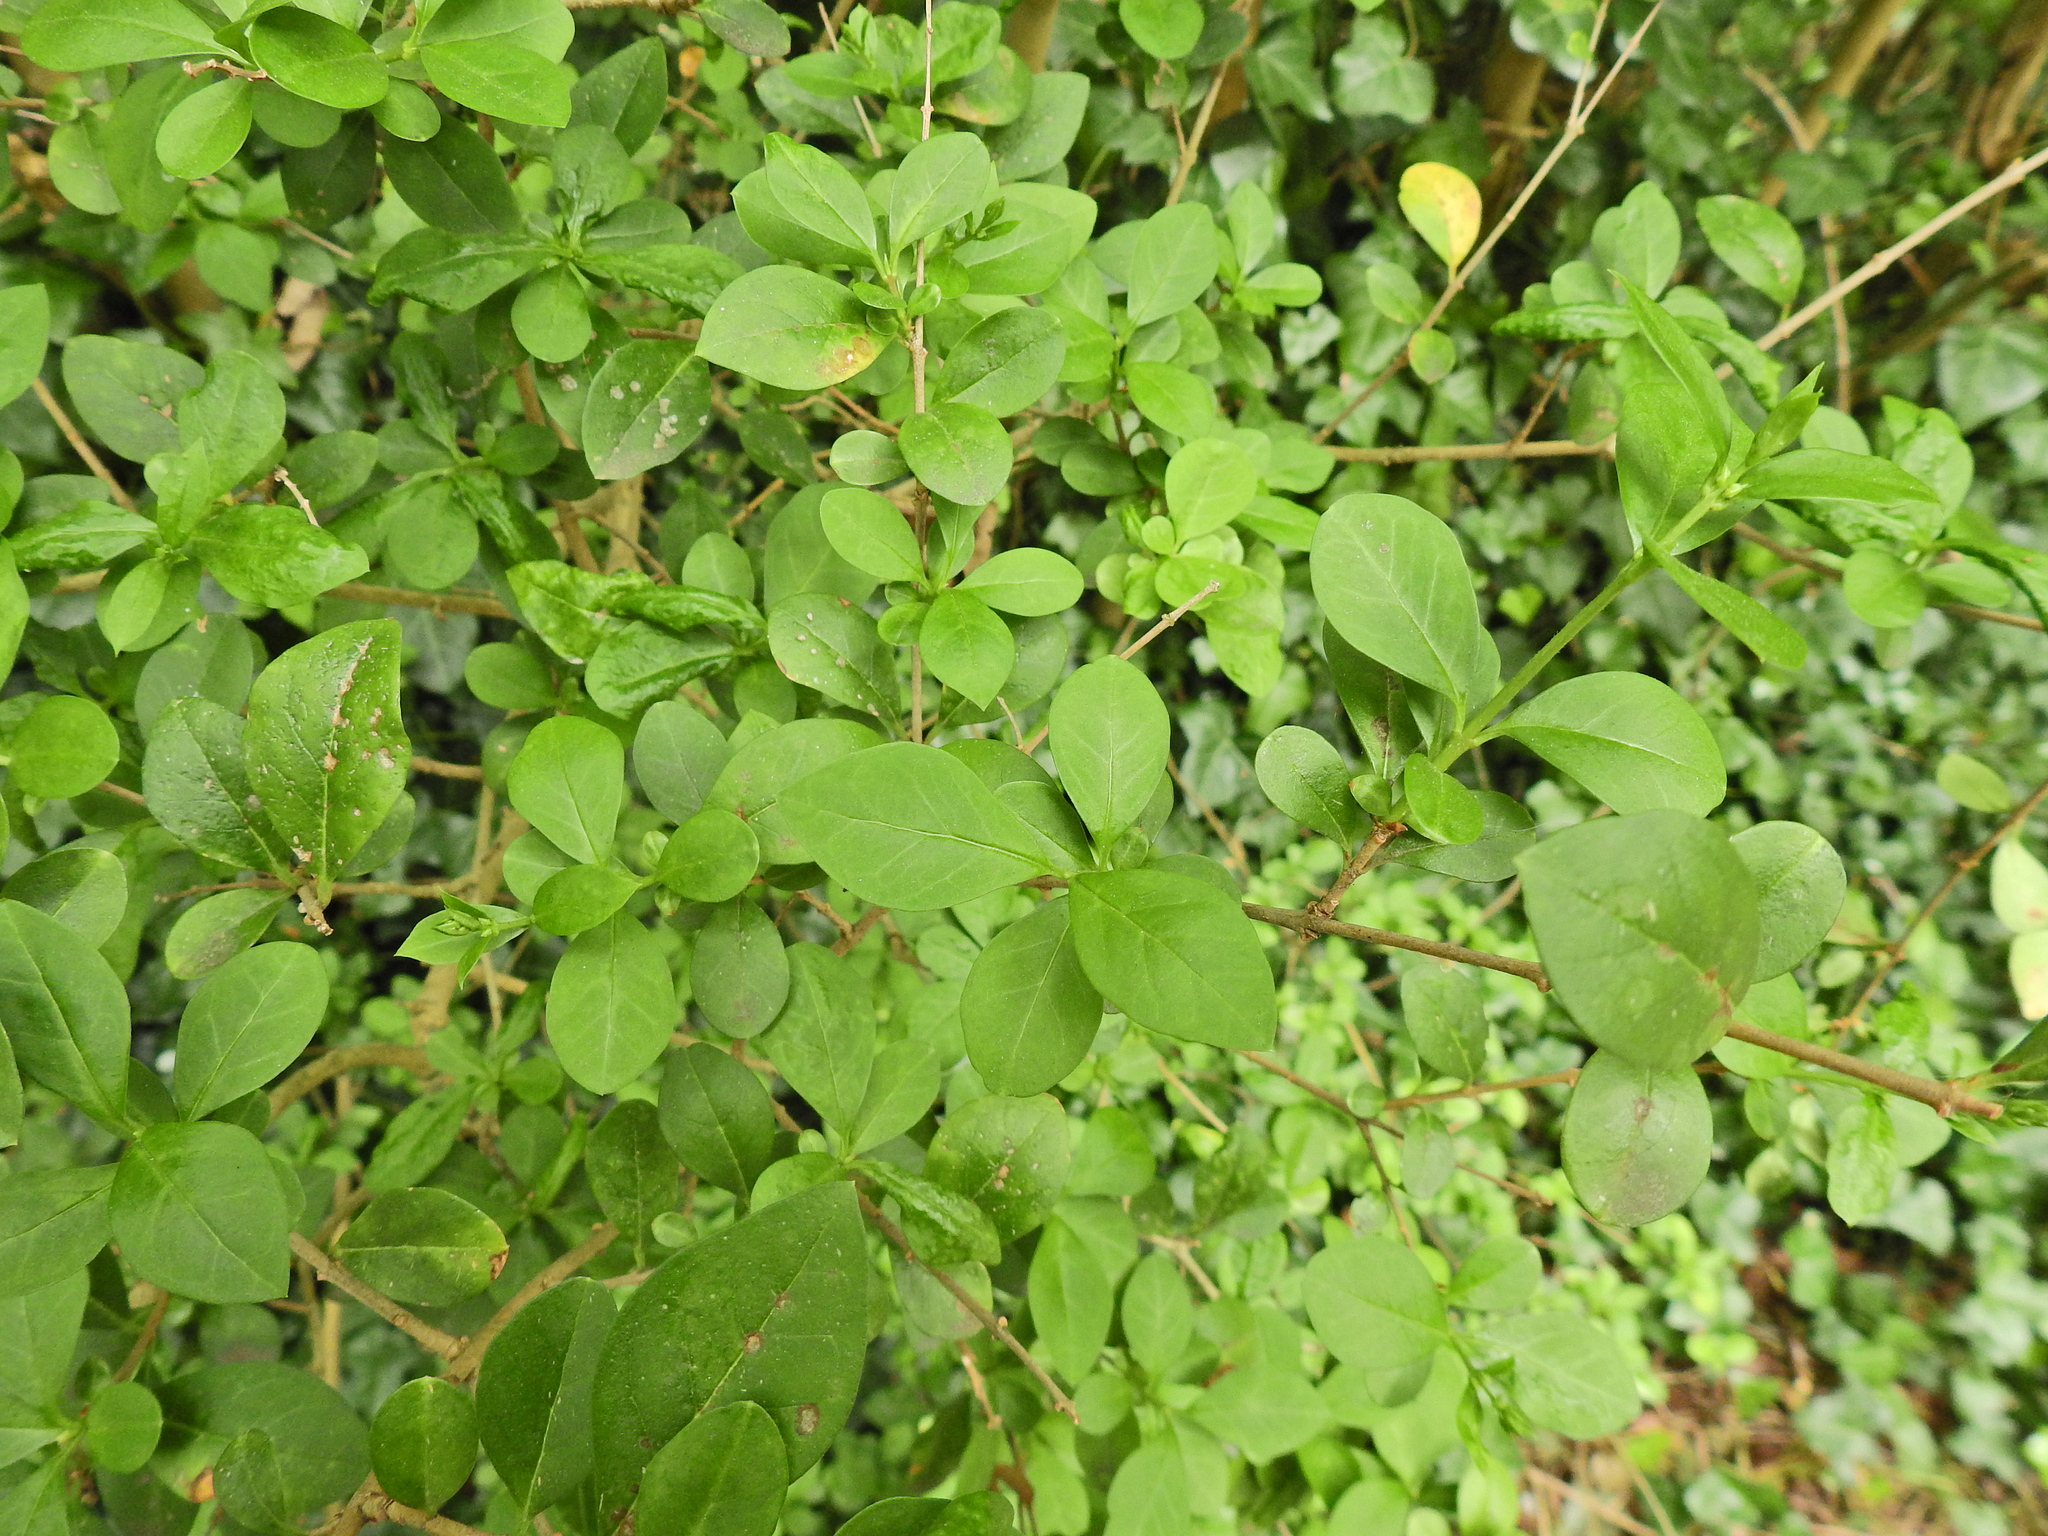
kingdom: Plantae
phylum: Tracheophyta
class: Magnoliopsida
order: Lamiales
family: Oleaceae
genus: Ligustrum
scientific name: Ligustrum ovalifolium
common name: California privet
